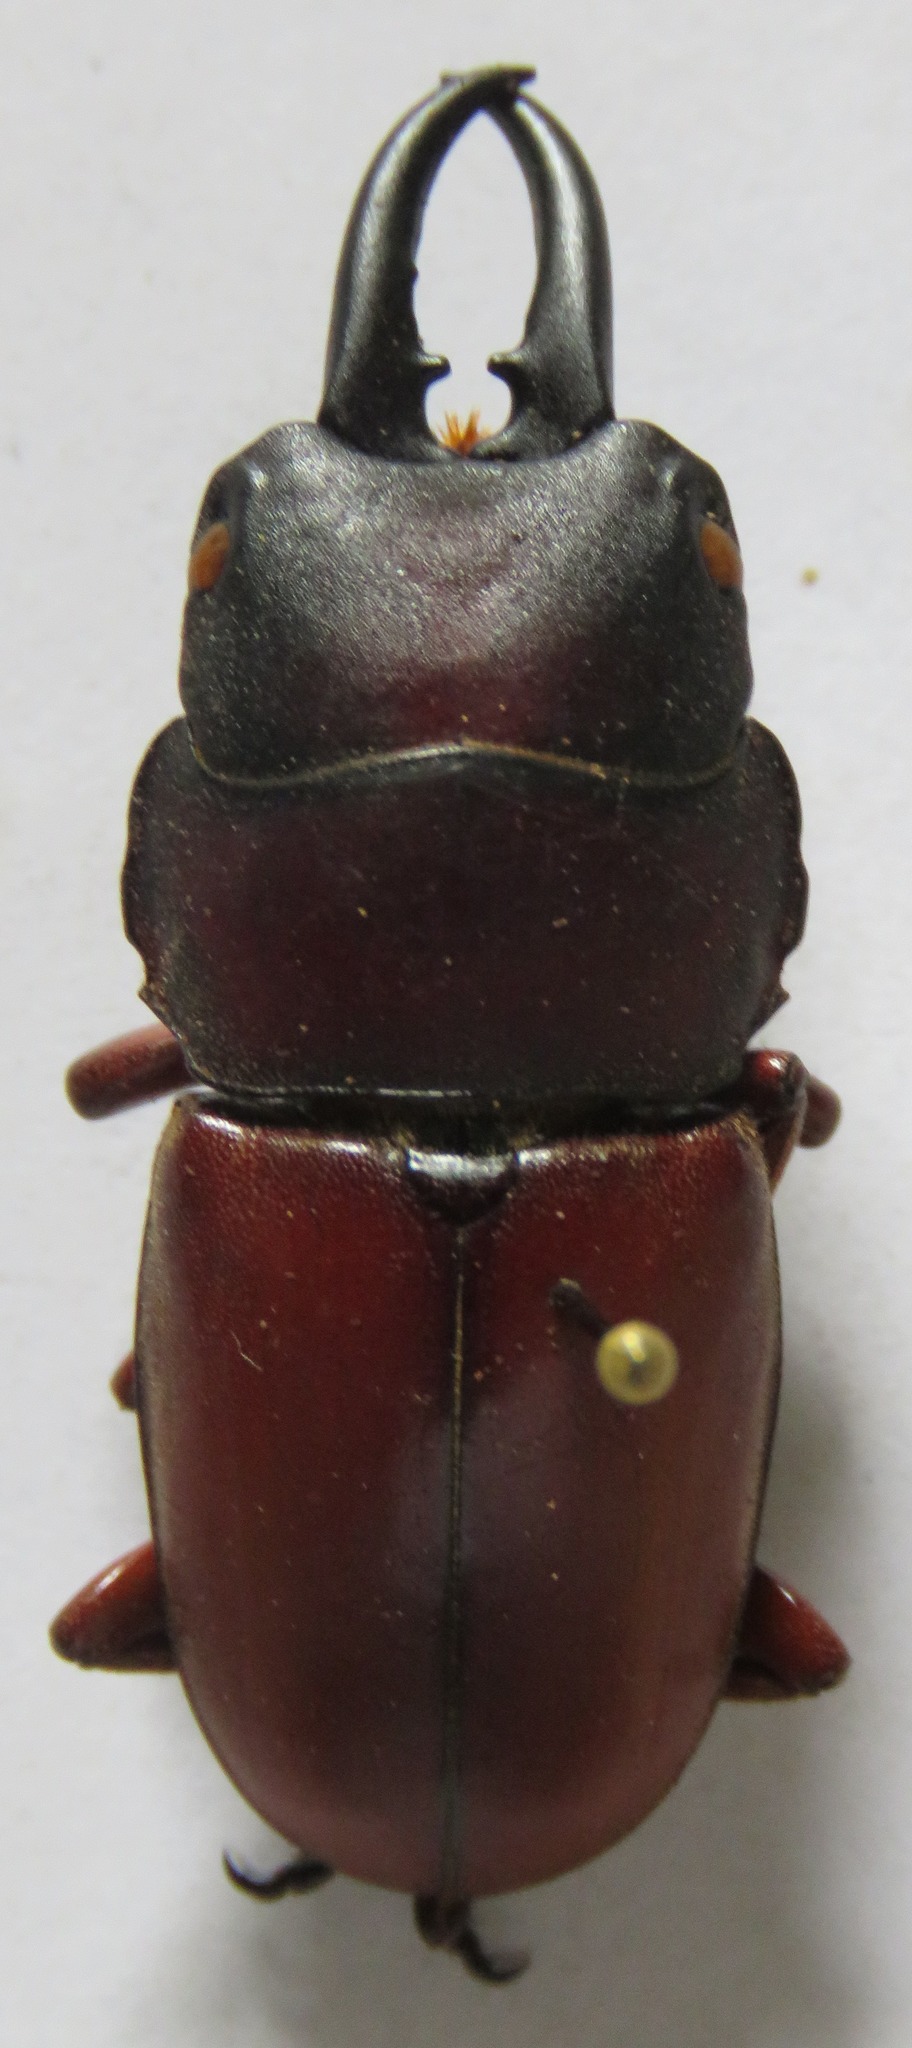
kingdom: Animalia
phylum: Arthropoda
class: Insecta
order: Coleoptera
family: Lucanidae
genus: Prosopocoilus
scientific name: Prosopocoilus romeoi
